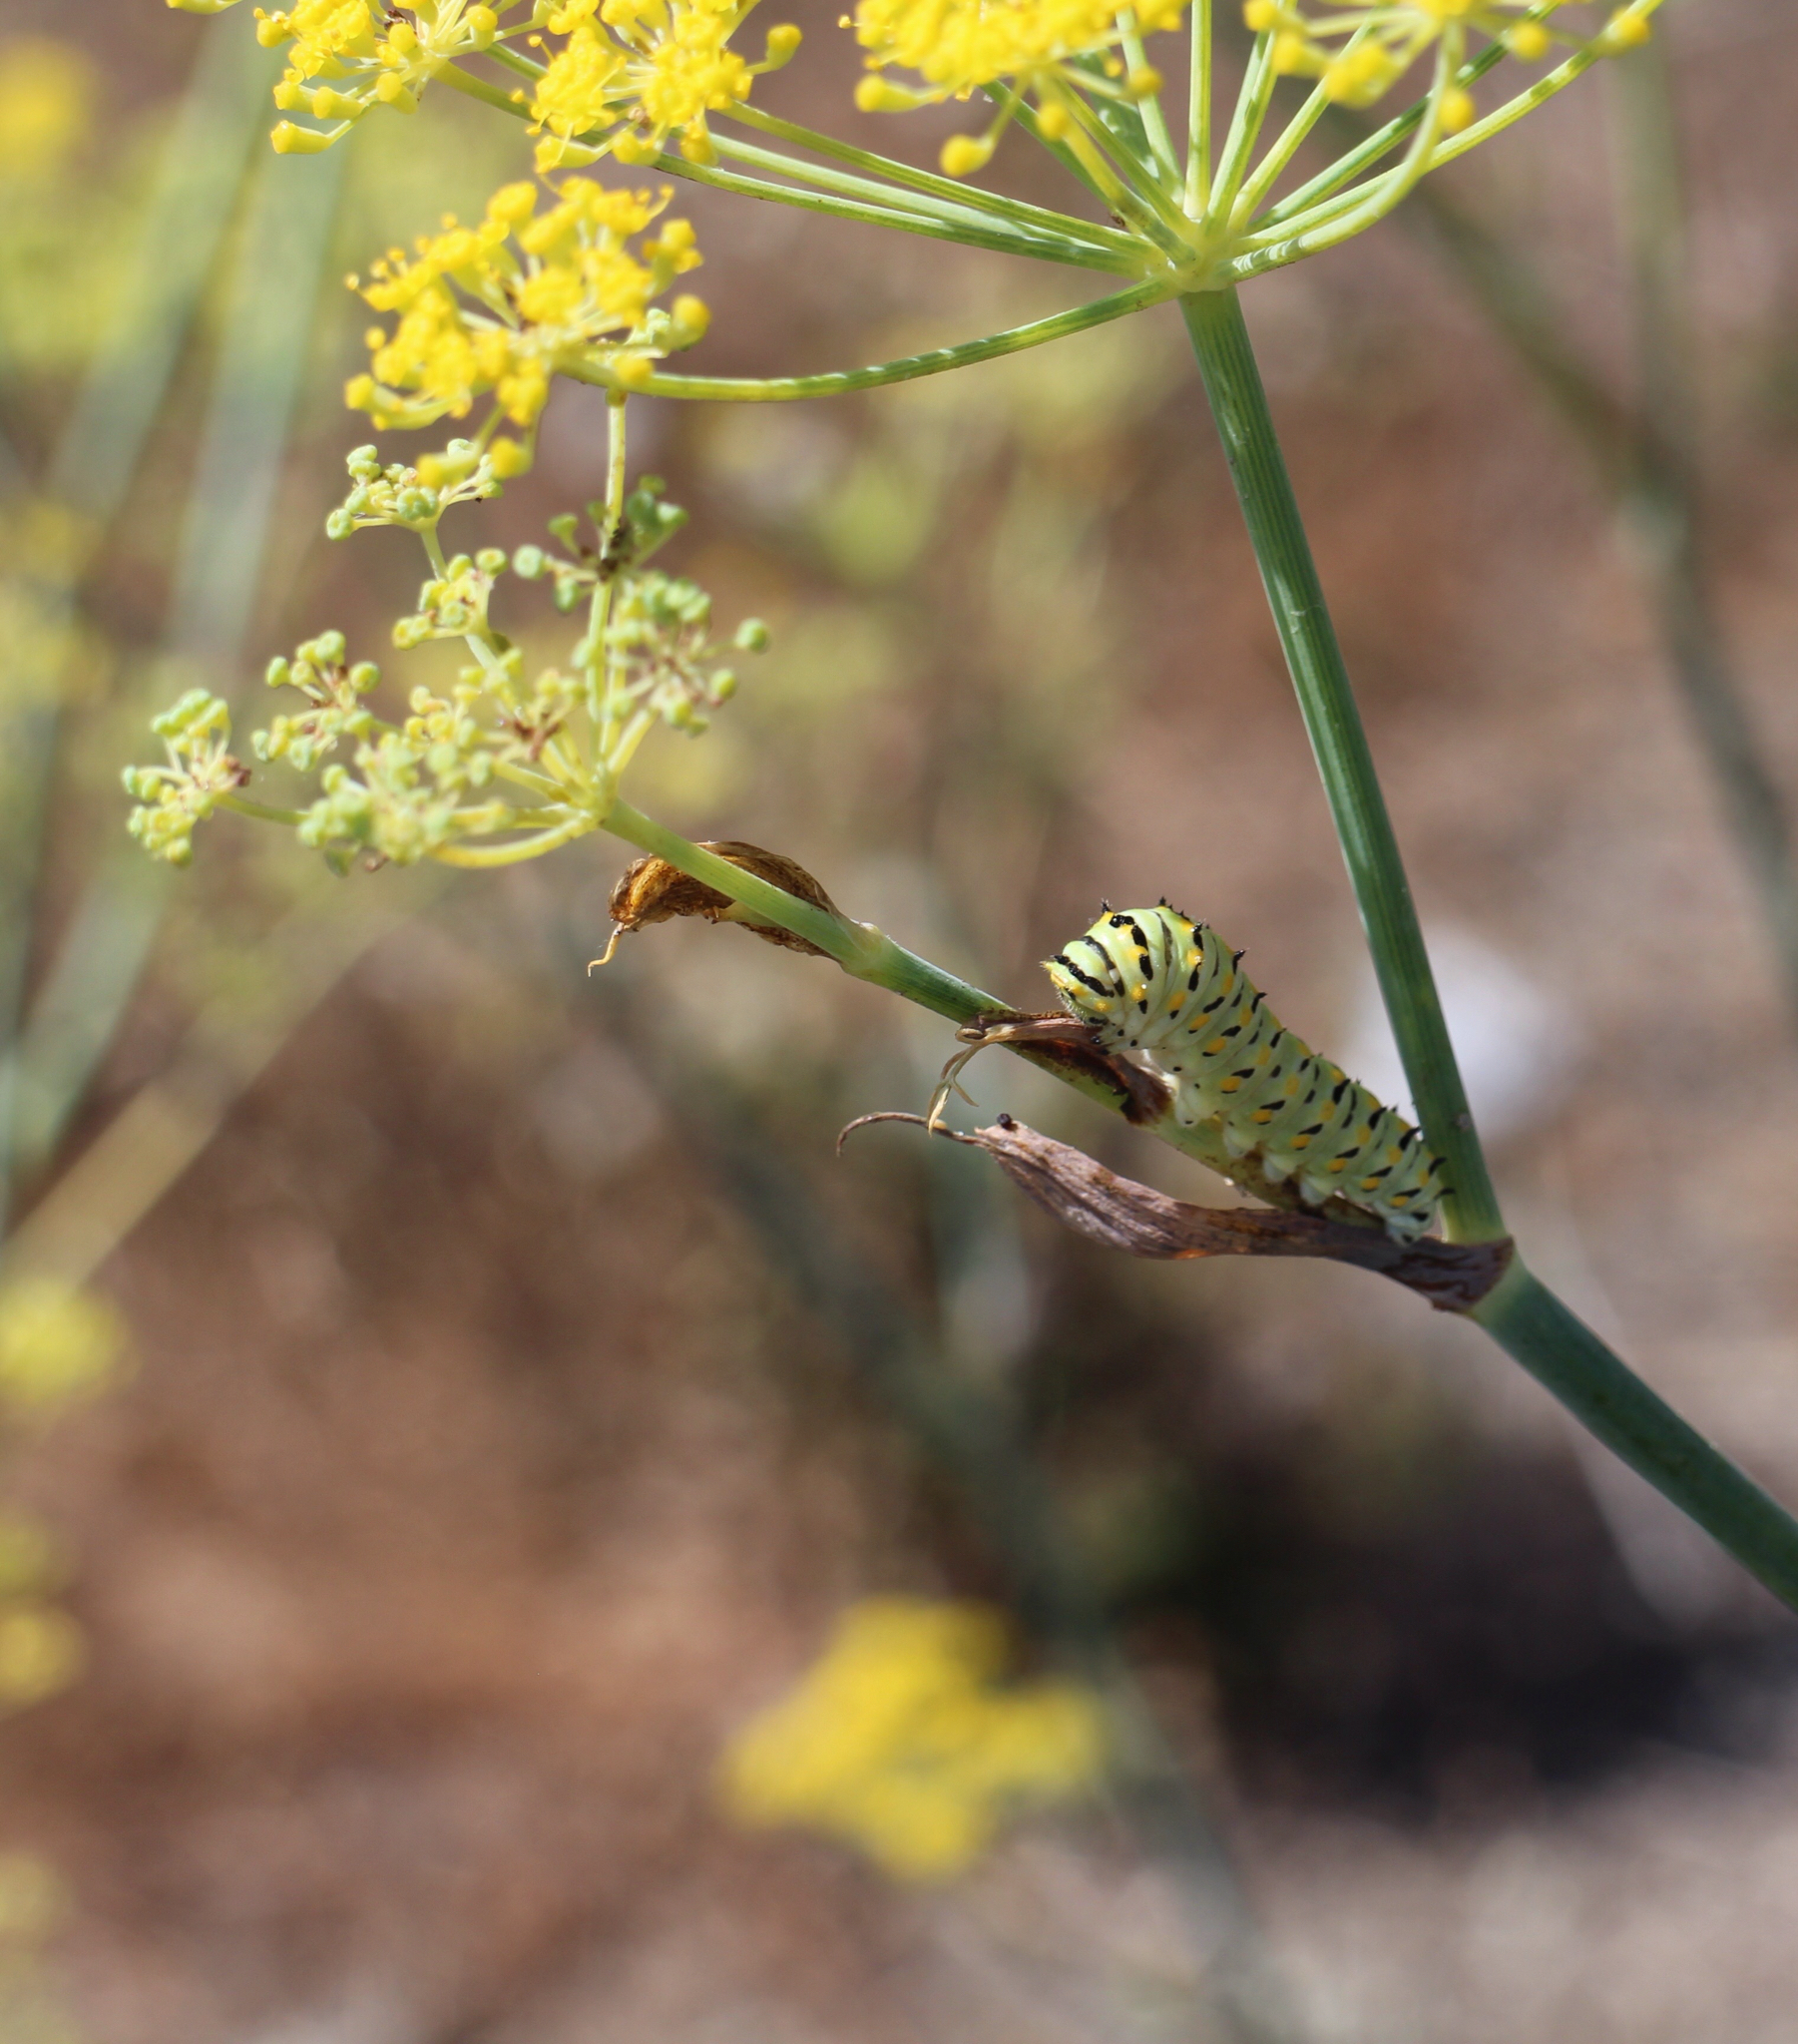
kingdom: Animalia
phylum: Arthropoda
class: Insecta
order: Lepidoptera
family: Papilionidae
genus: Papilio
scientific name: Papilio zelicaon
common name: Anise swallowtail
